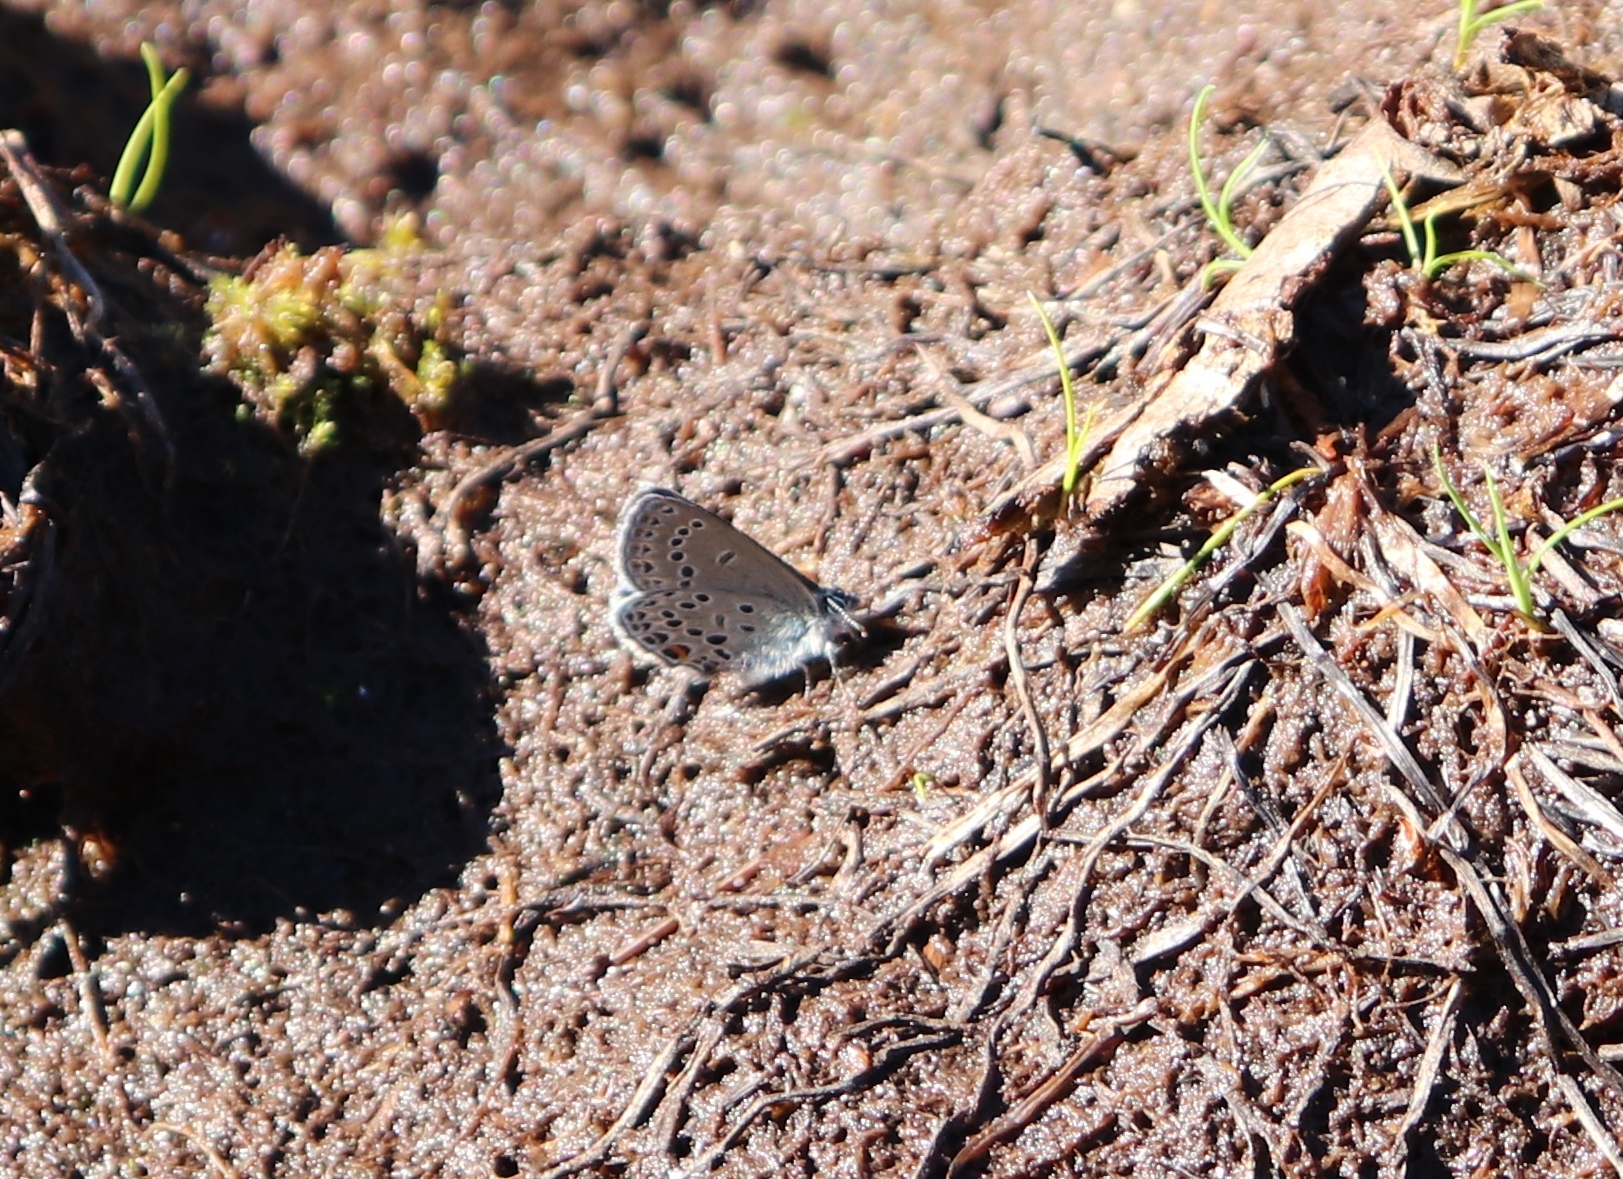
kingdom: Animalia
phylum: Arthropoda
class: Insecta
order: Lepidoptera
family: Lycaenidae
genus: Vacciniina
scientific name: Vacciniina optilete
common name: Cranberry blue
